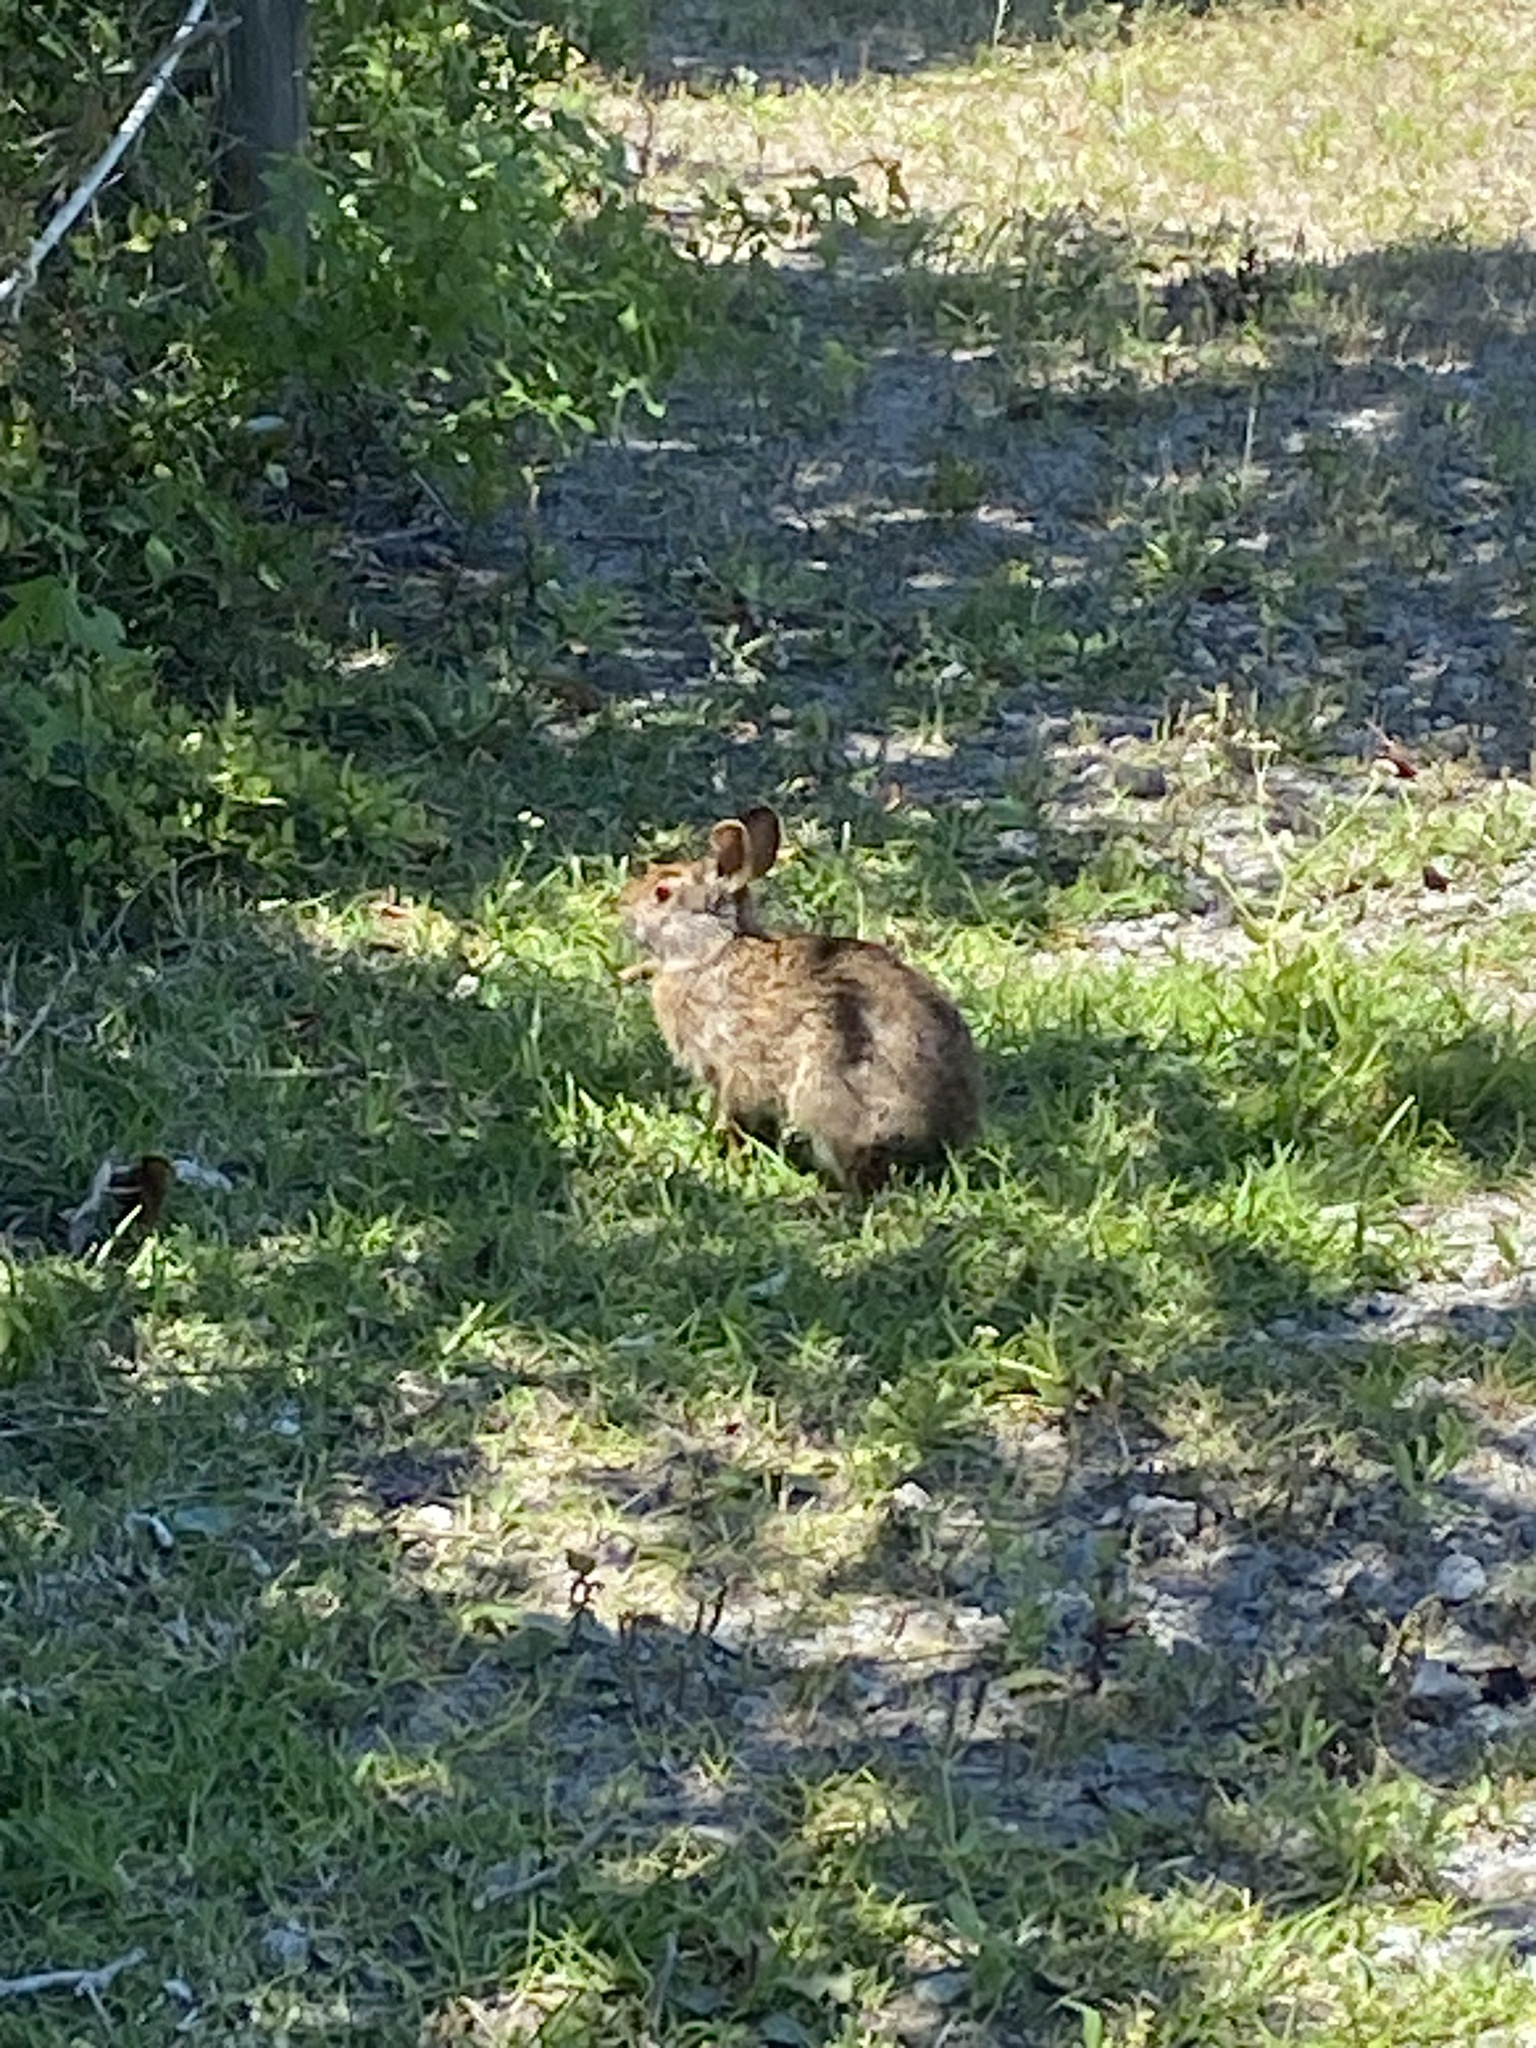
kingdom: Animalia
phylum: Chordata
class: Mammalia
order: Lagomorpha
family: Leporidae
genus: Sylvilagus
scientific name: Sylvilagus palustris
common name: Marsh rabbit
